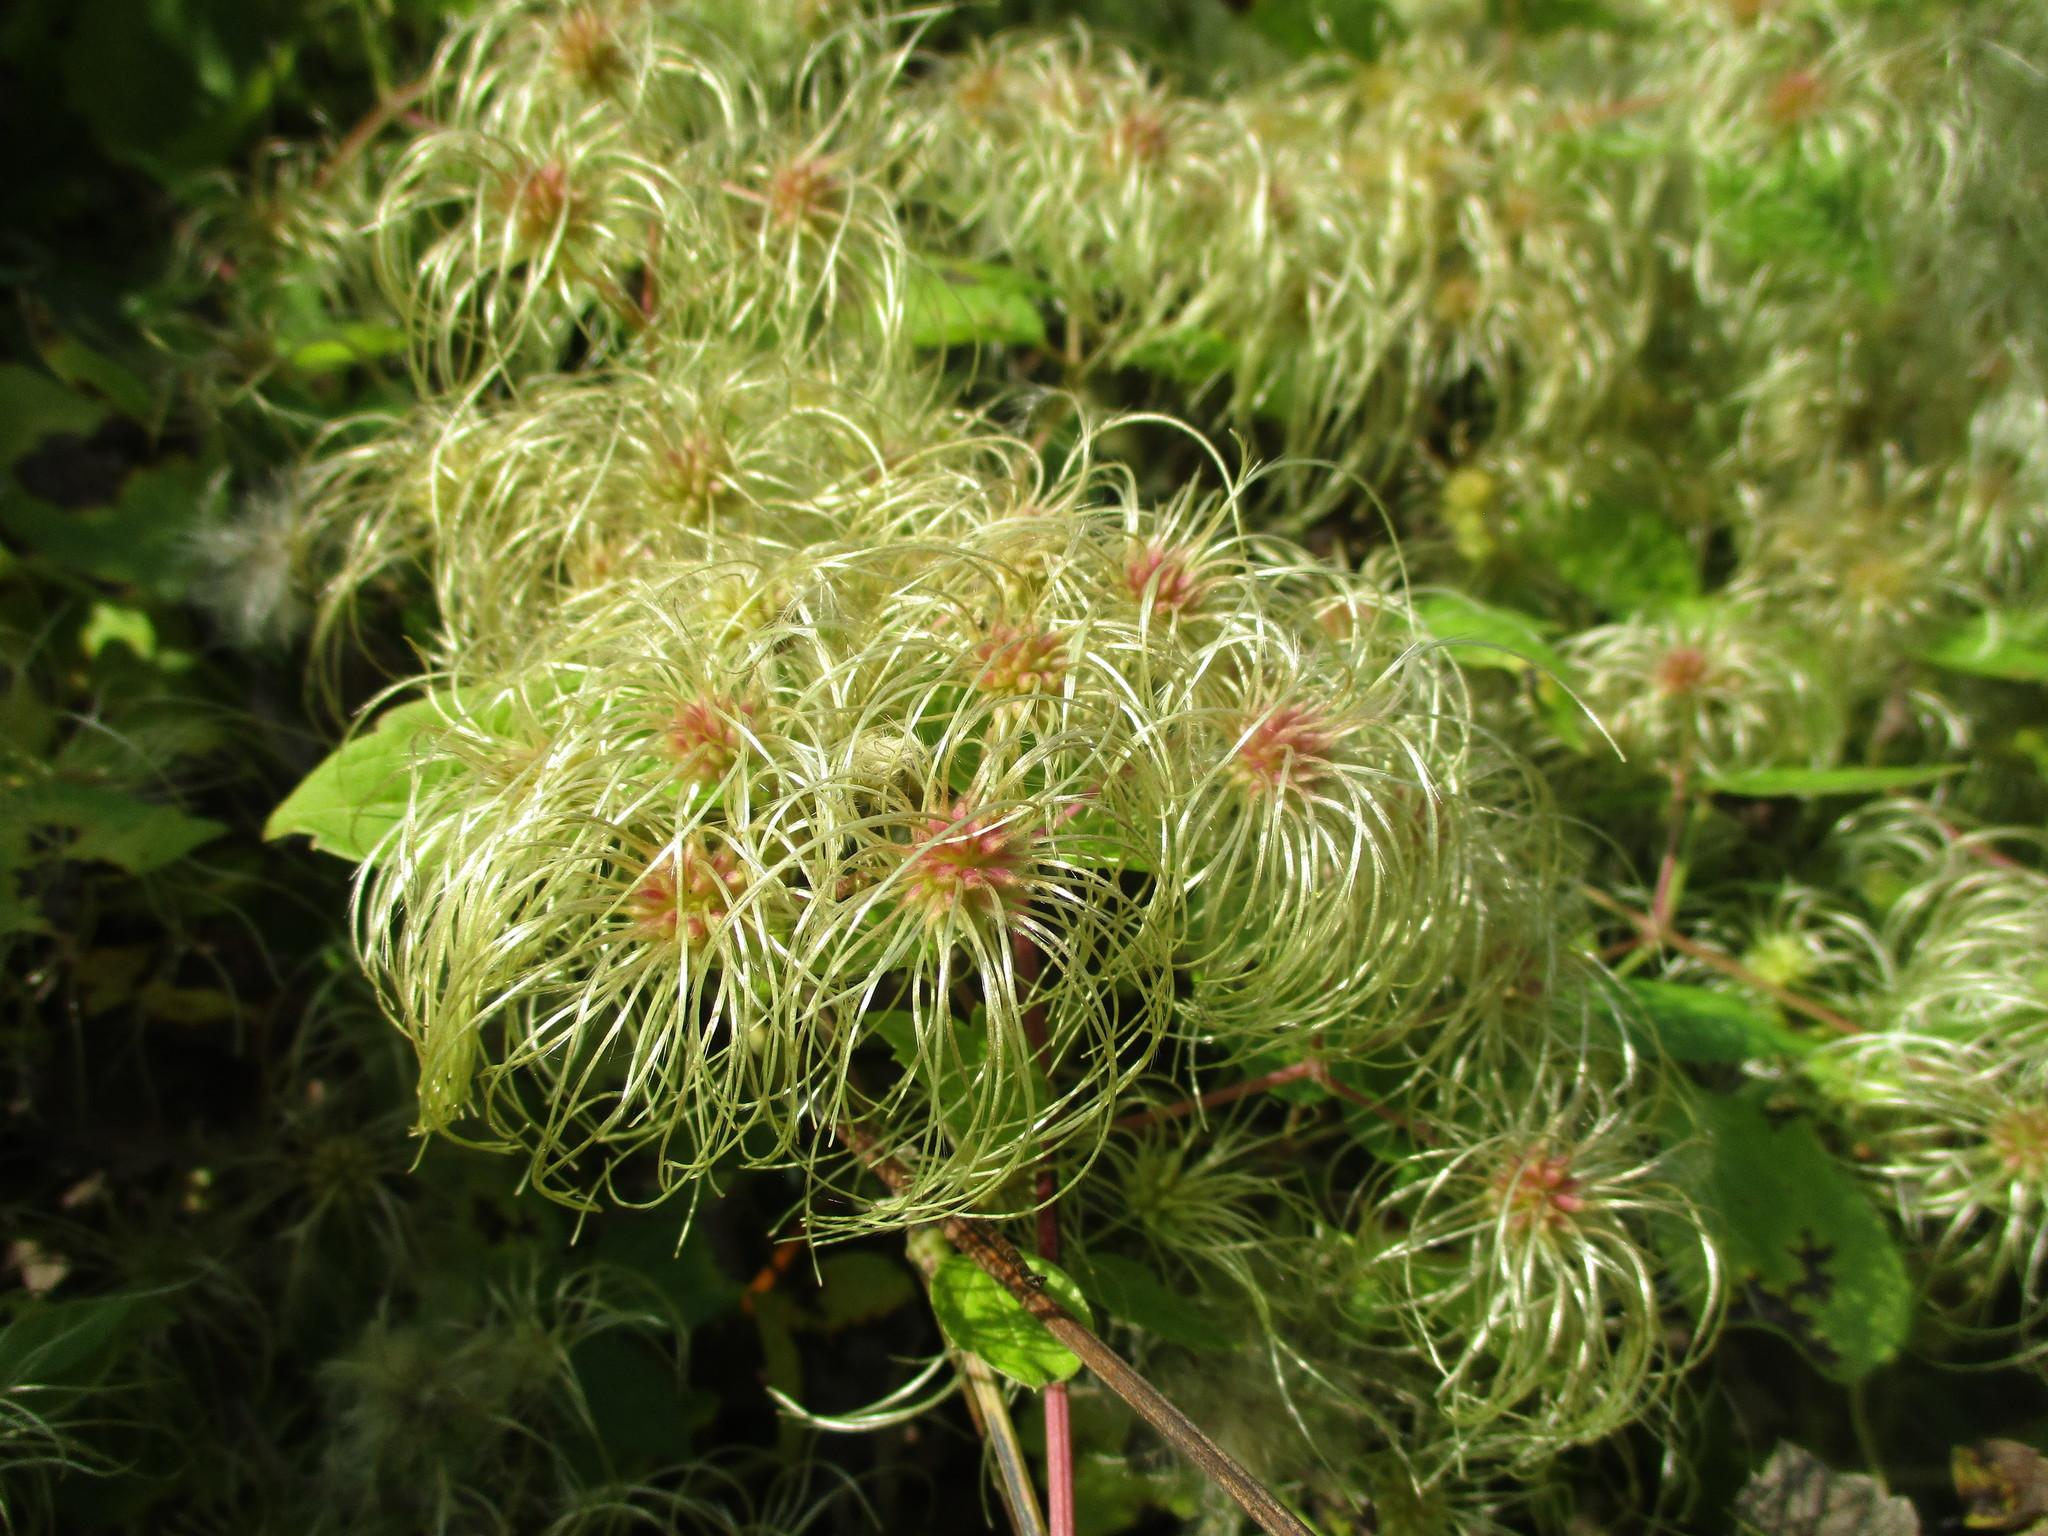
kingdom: Plantae
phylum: Tracheophyta
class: Magnoliopsida
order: Ranunculales
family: Ranunculaceae
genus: Clematis
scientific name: Clematis virginiana
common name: Virgin's-bower
